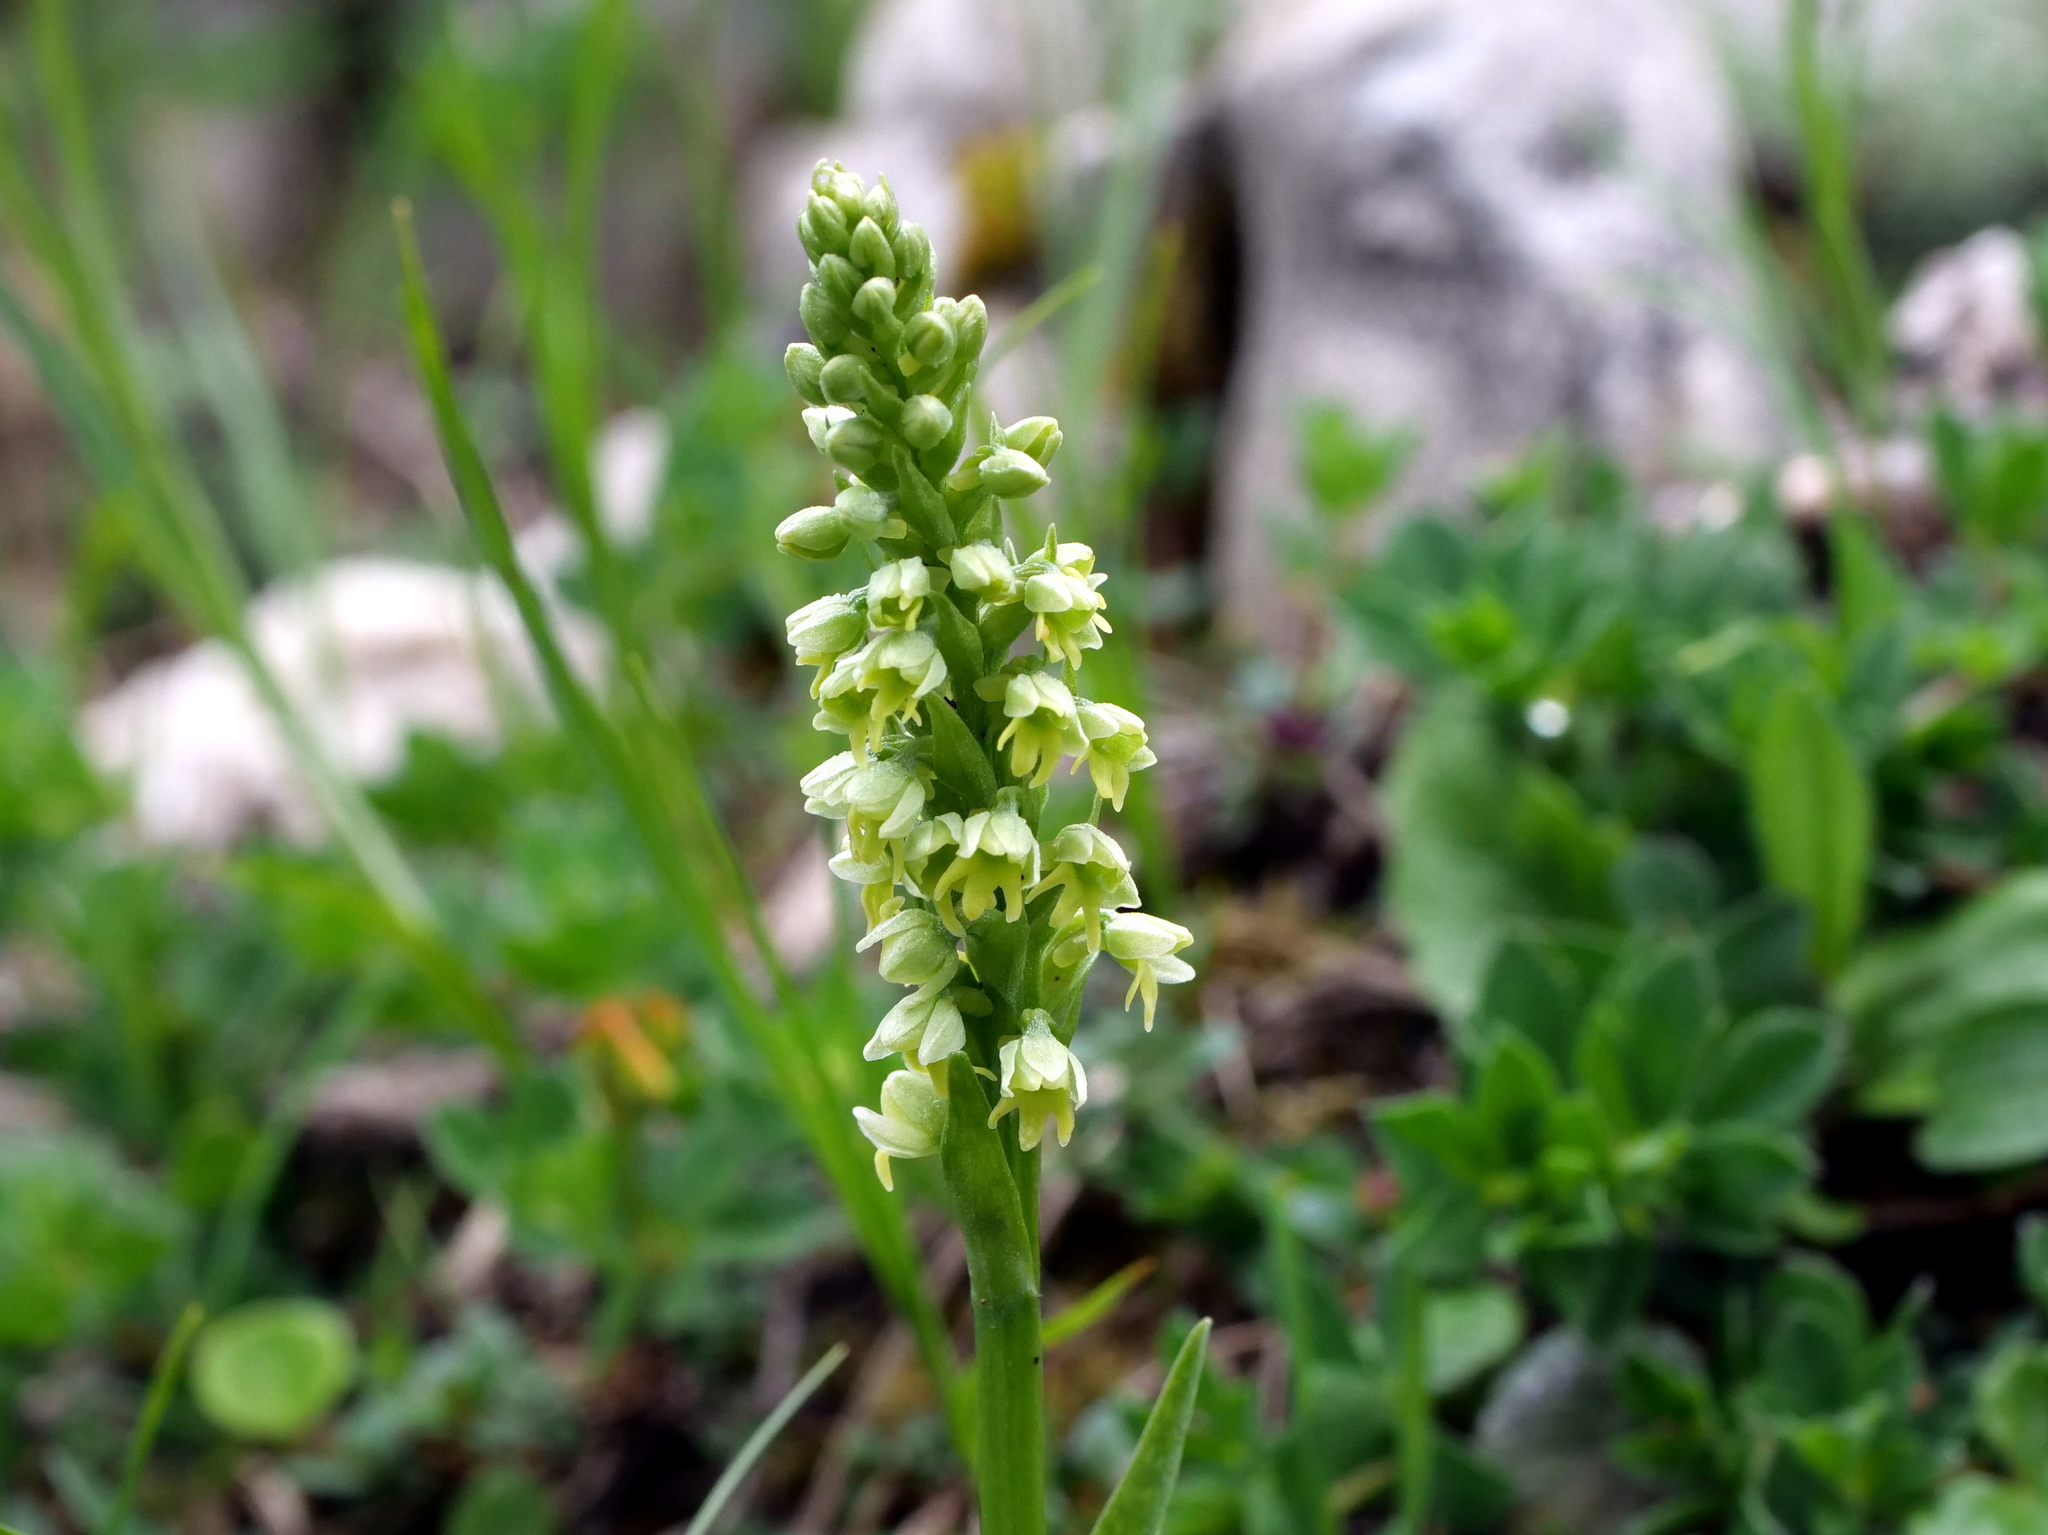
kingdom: Plantae
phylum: Tracheophyta
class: Liliopsida
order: Asparagales
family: Orchidaceae
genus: Pseudorchis
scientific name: Pseudorchis albida
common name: Small-white orchid
